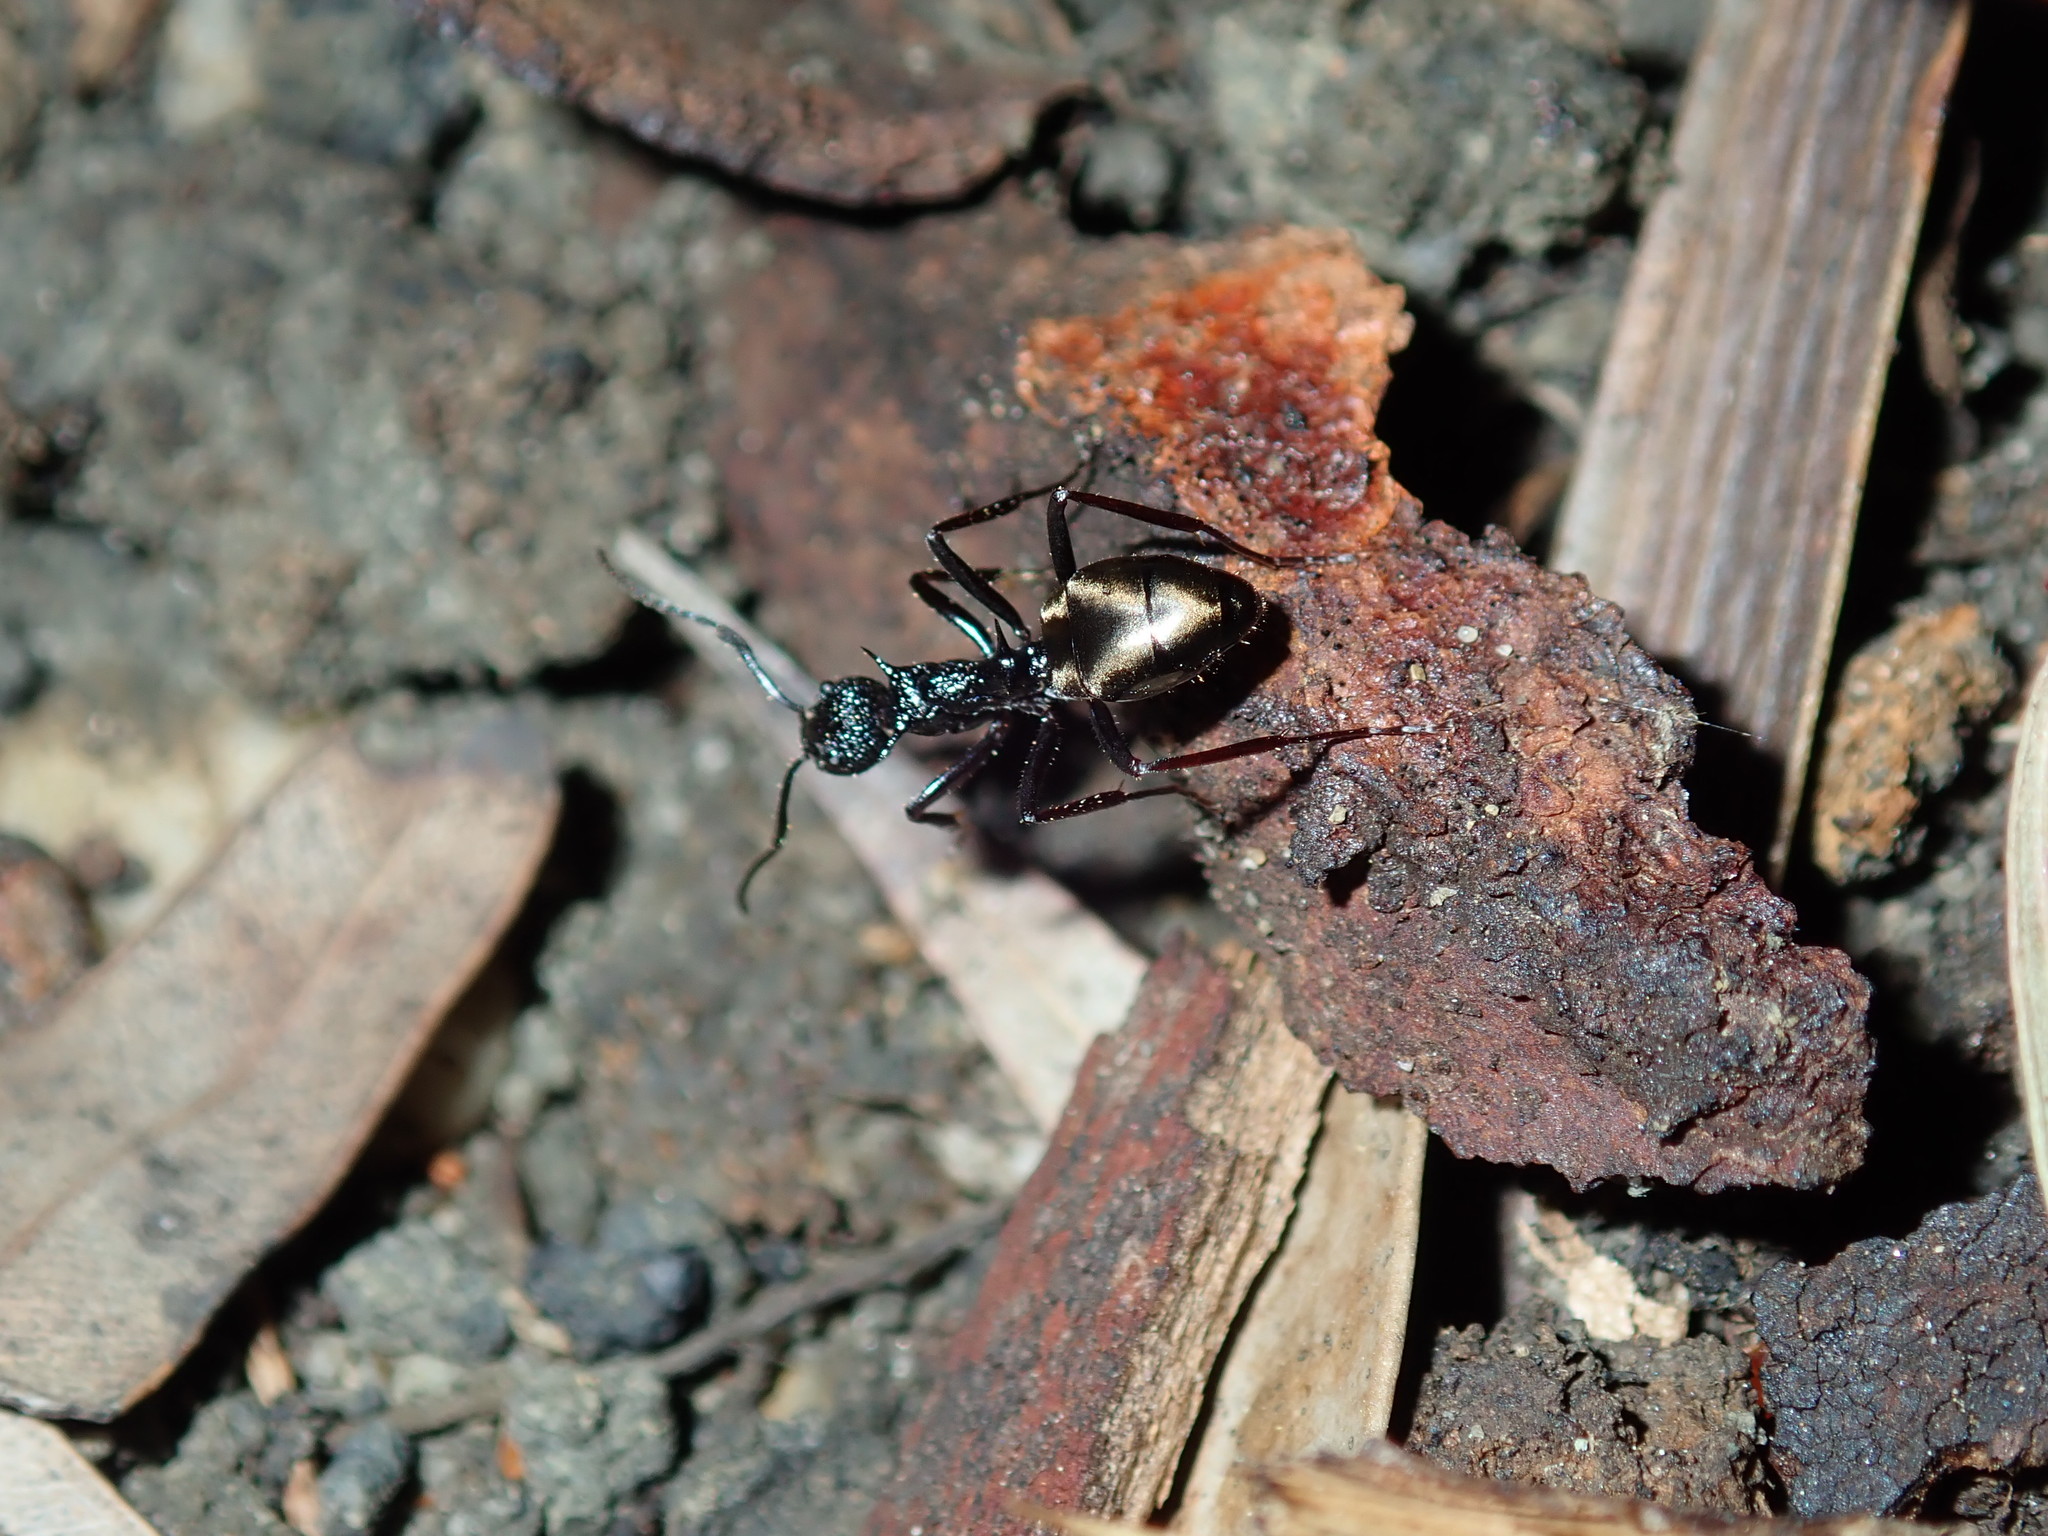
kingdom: Animalia
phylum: Arthropoda
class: Insecta
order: Hymenoptera
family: Formicidae
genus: Dolichoderus
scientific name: Dolichoderus clarki
